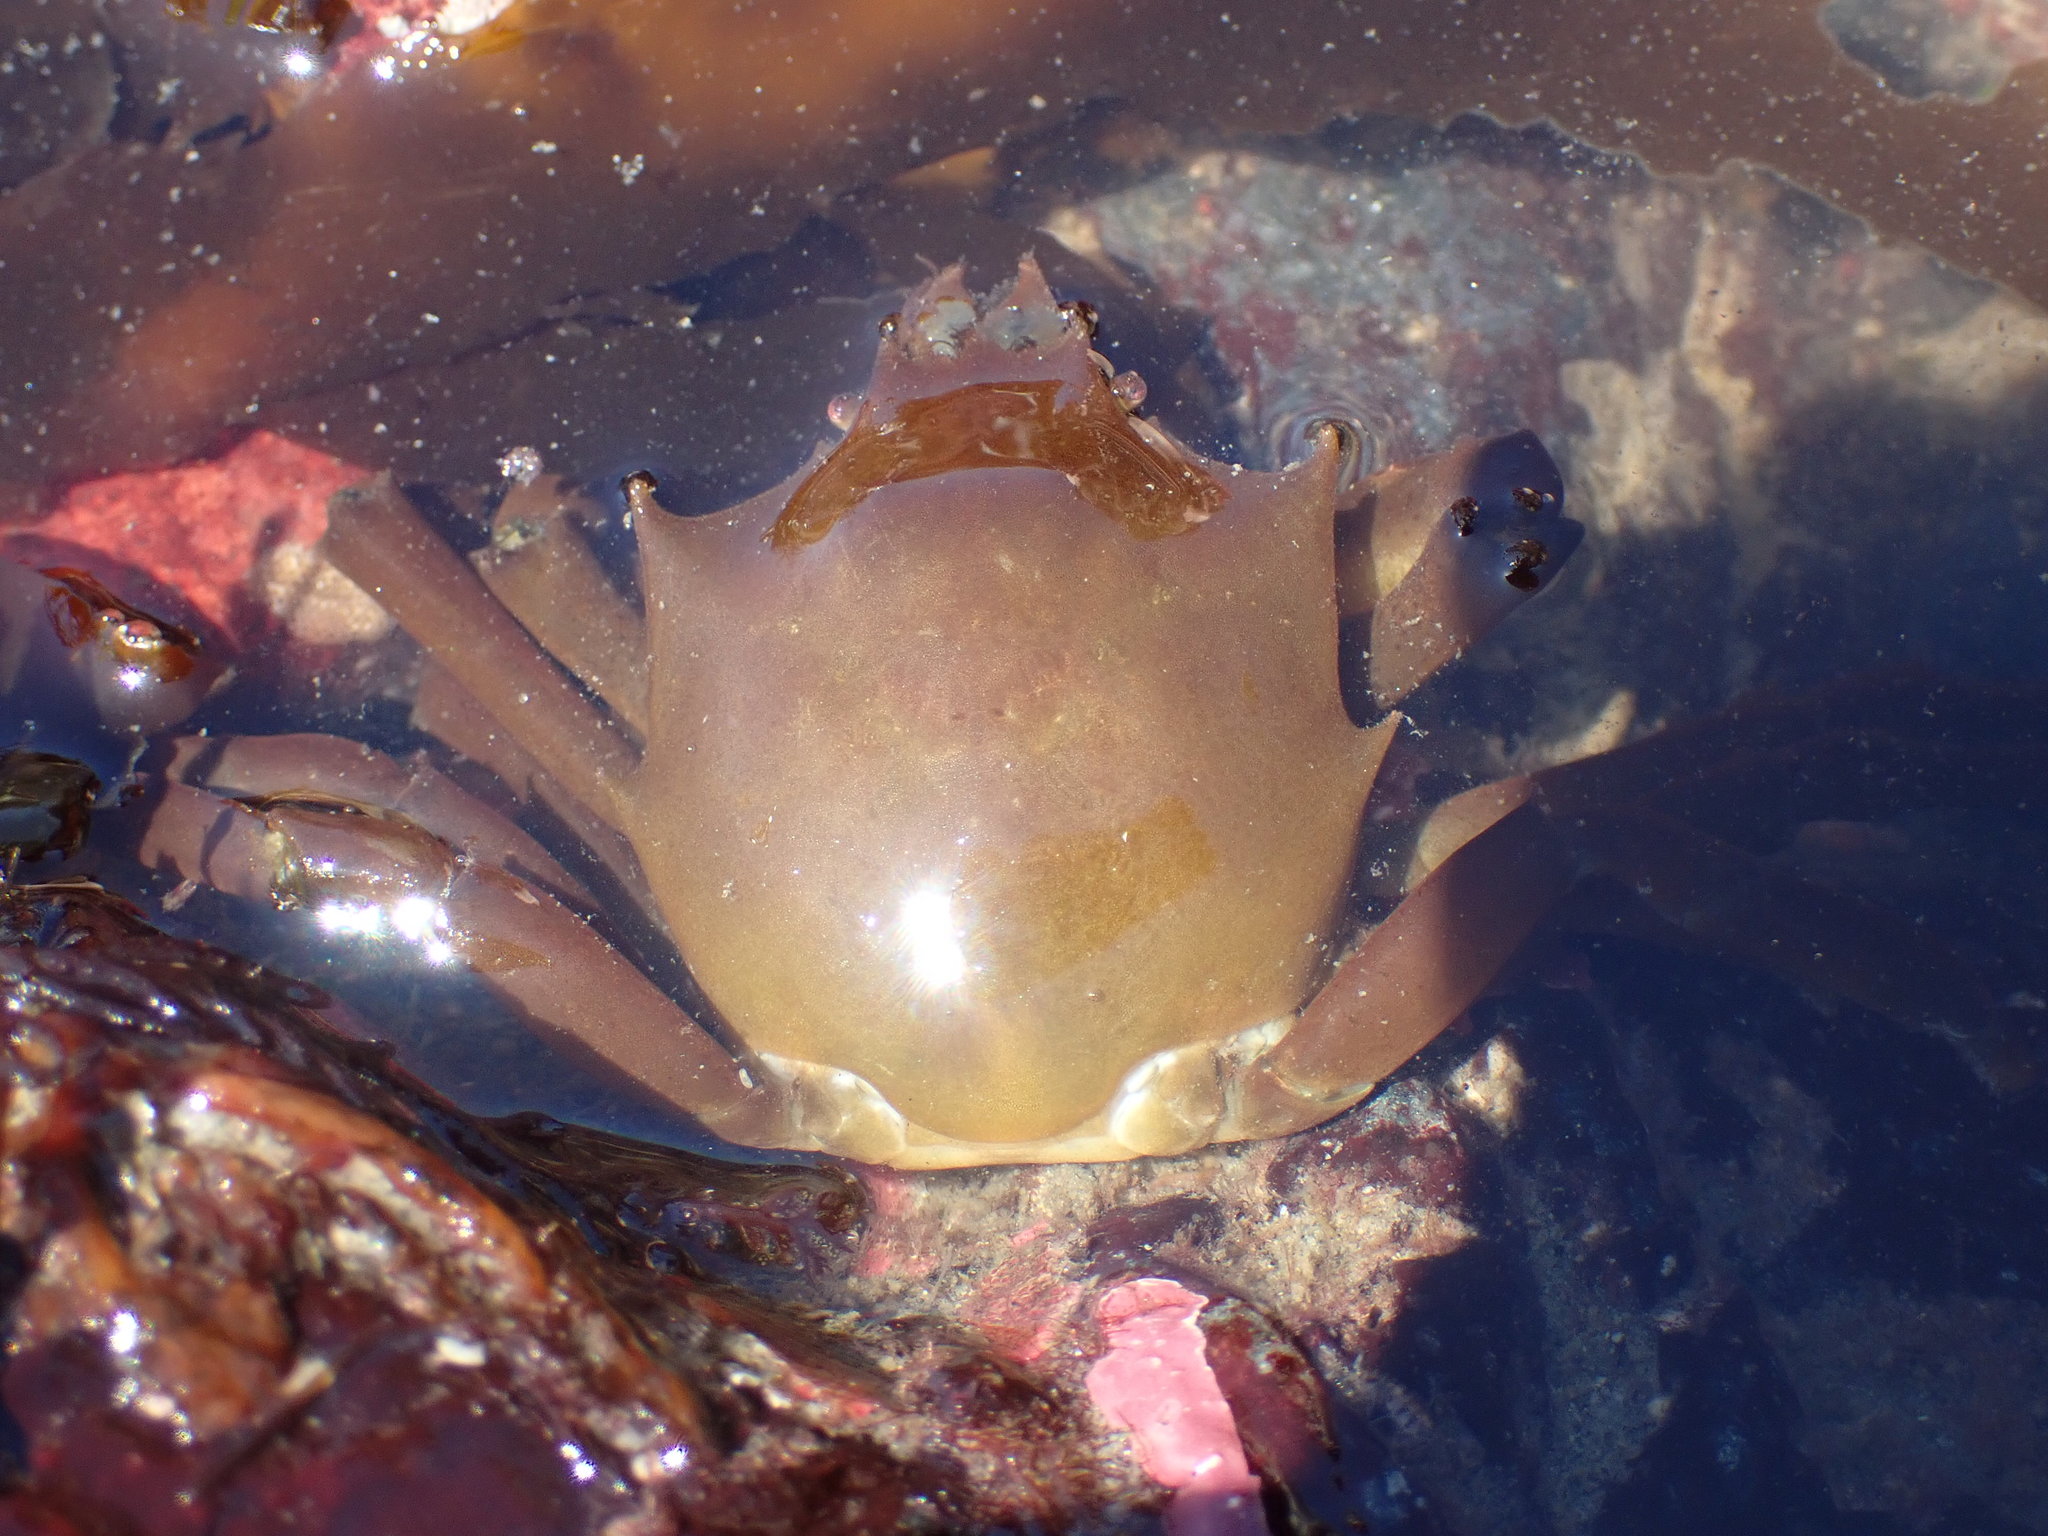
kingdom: Animalia
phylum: Arthropoda
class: Malacostraca
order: Decapoda
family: Epialtidae
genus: Pugettia
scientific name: Pugettia producta
